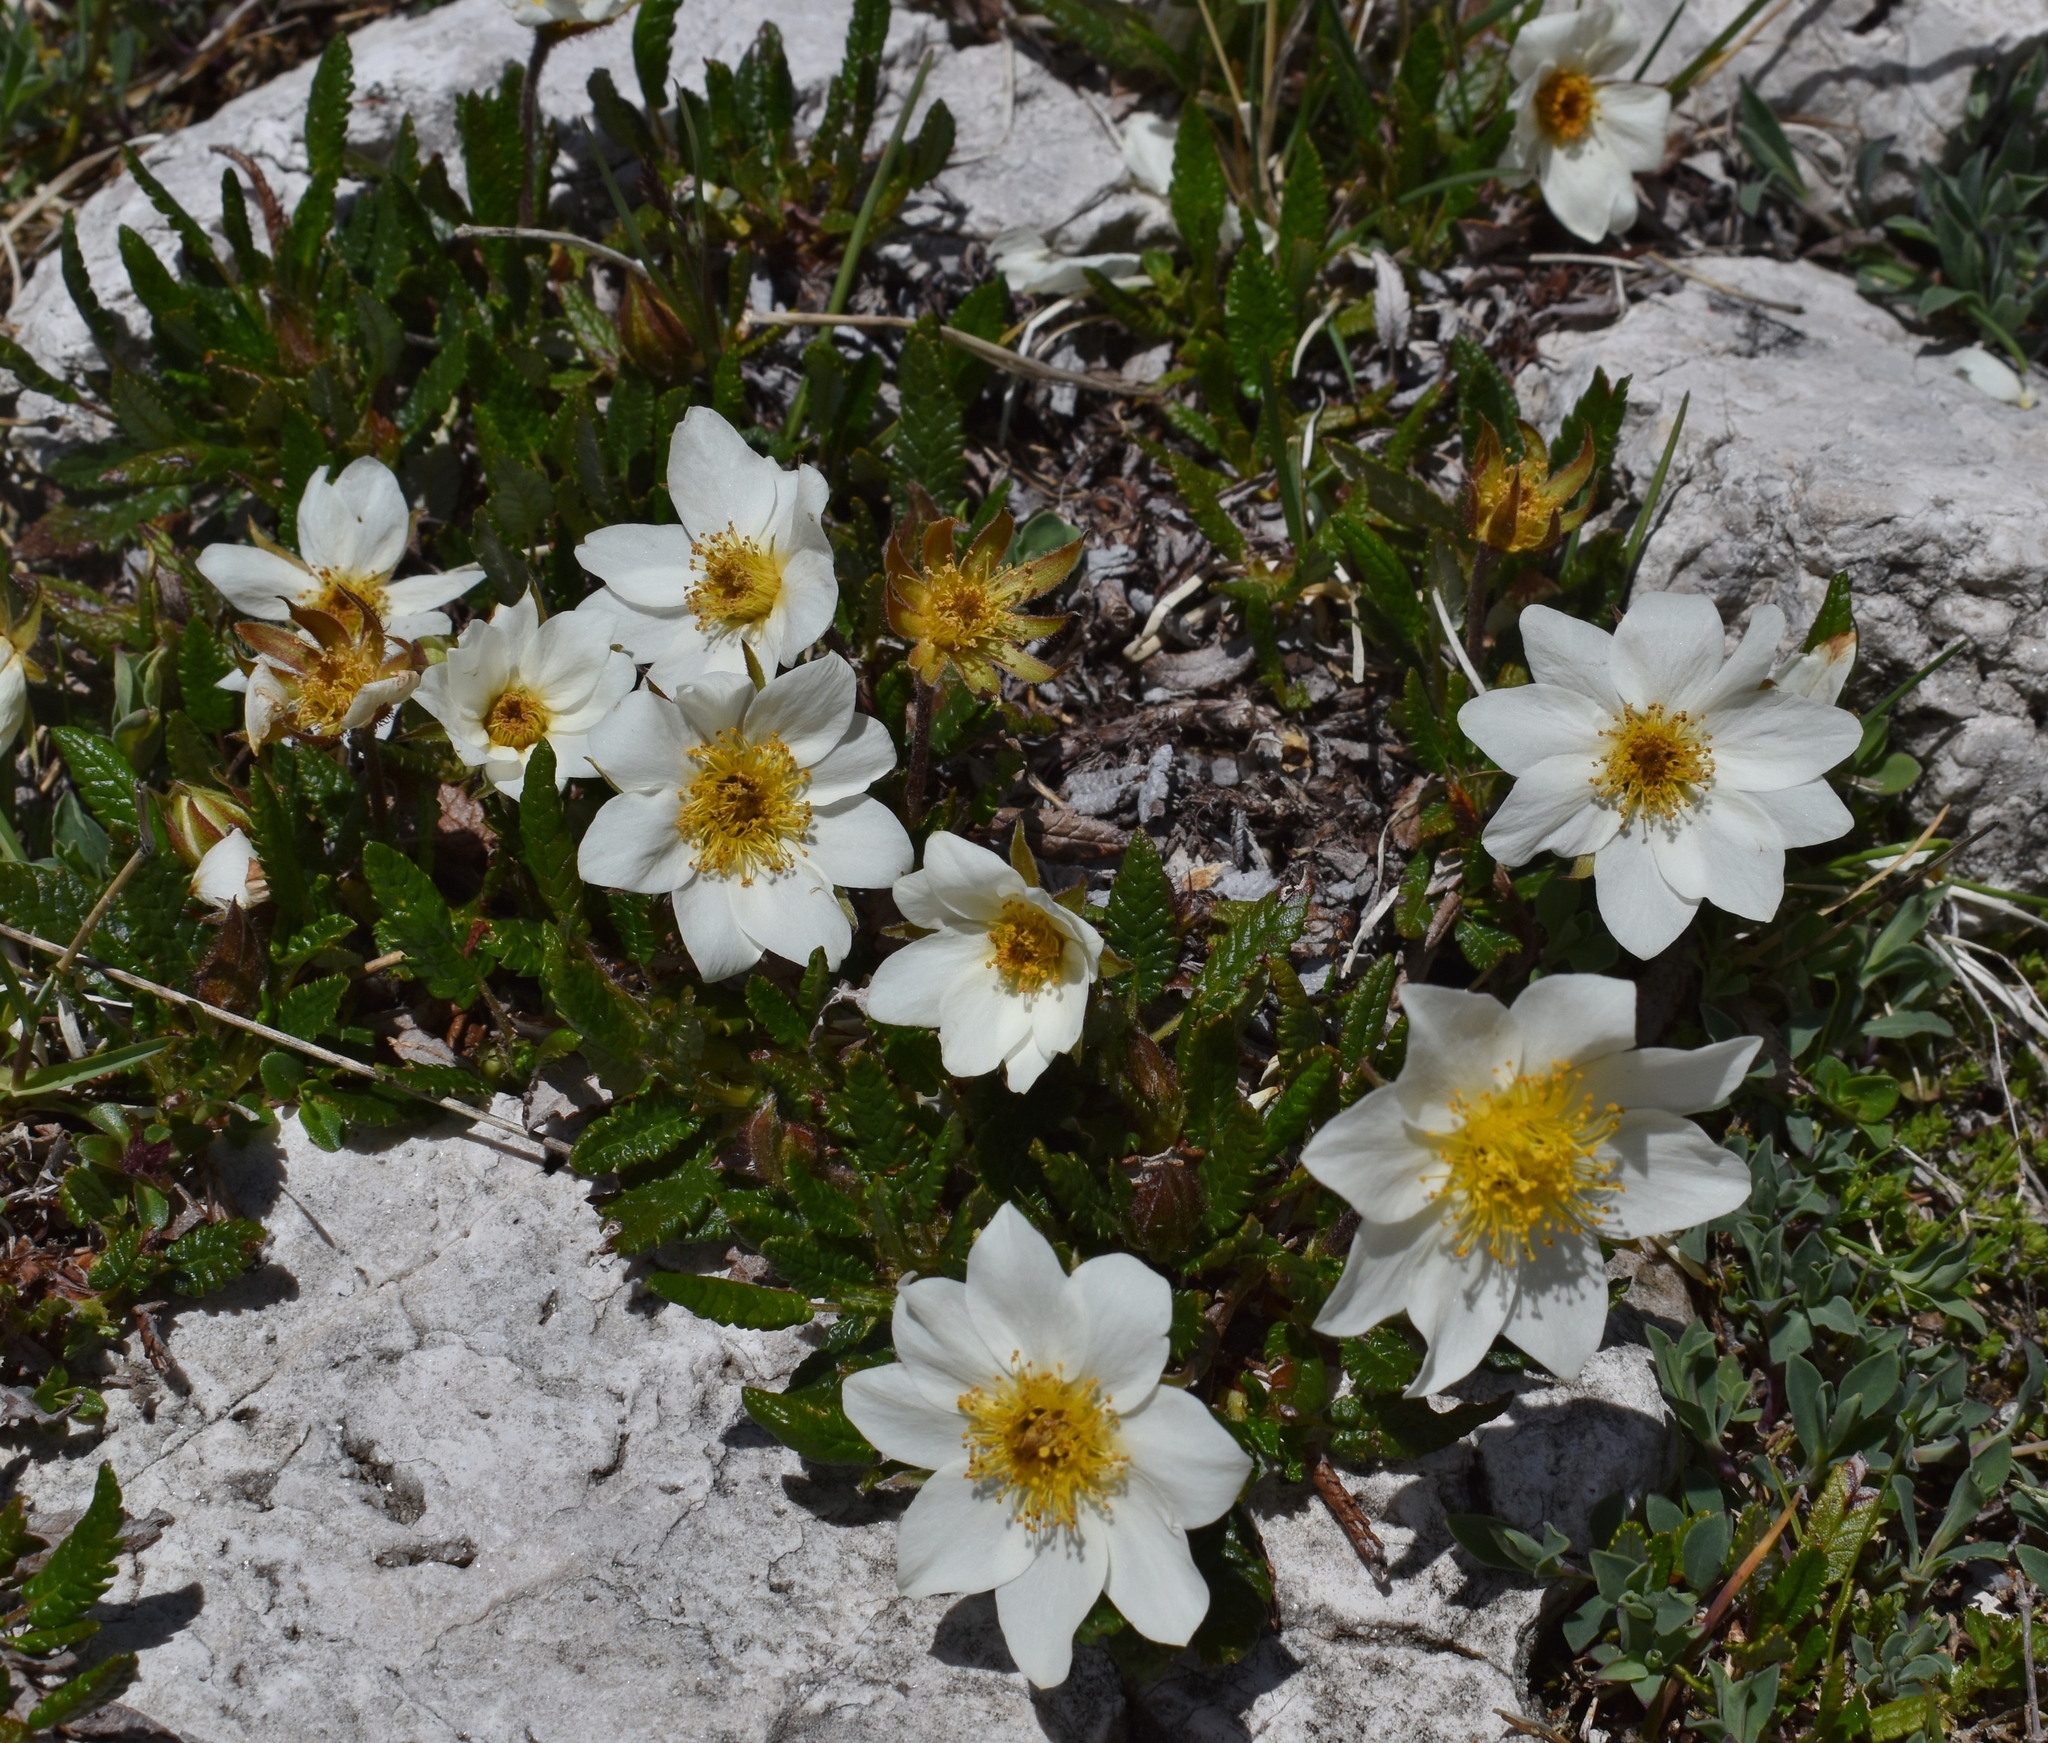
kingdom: Plantae
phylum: Tracheophyta
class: Magnoliopsida
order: Rosales
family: Rosaceae
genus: Dryas
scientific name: Dryas octopetala
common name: Eight-petal mountain-avens
